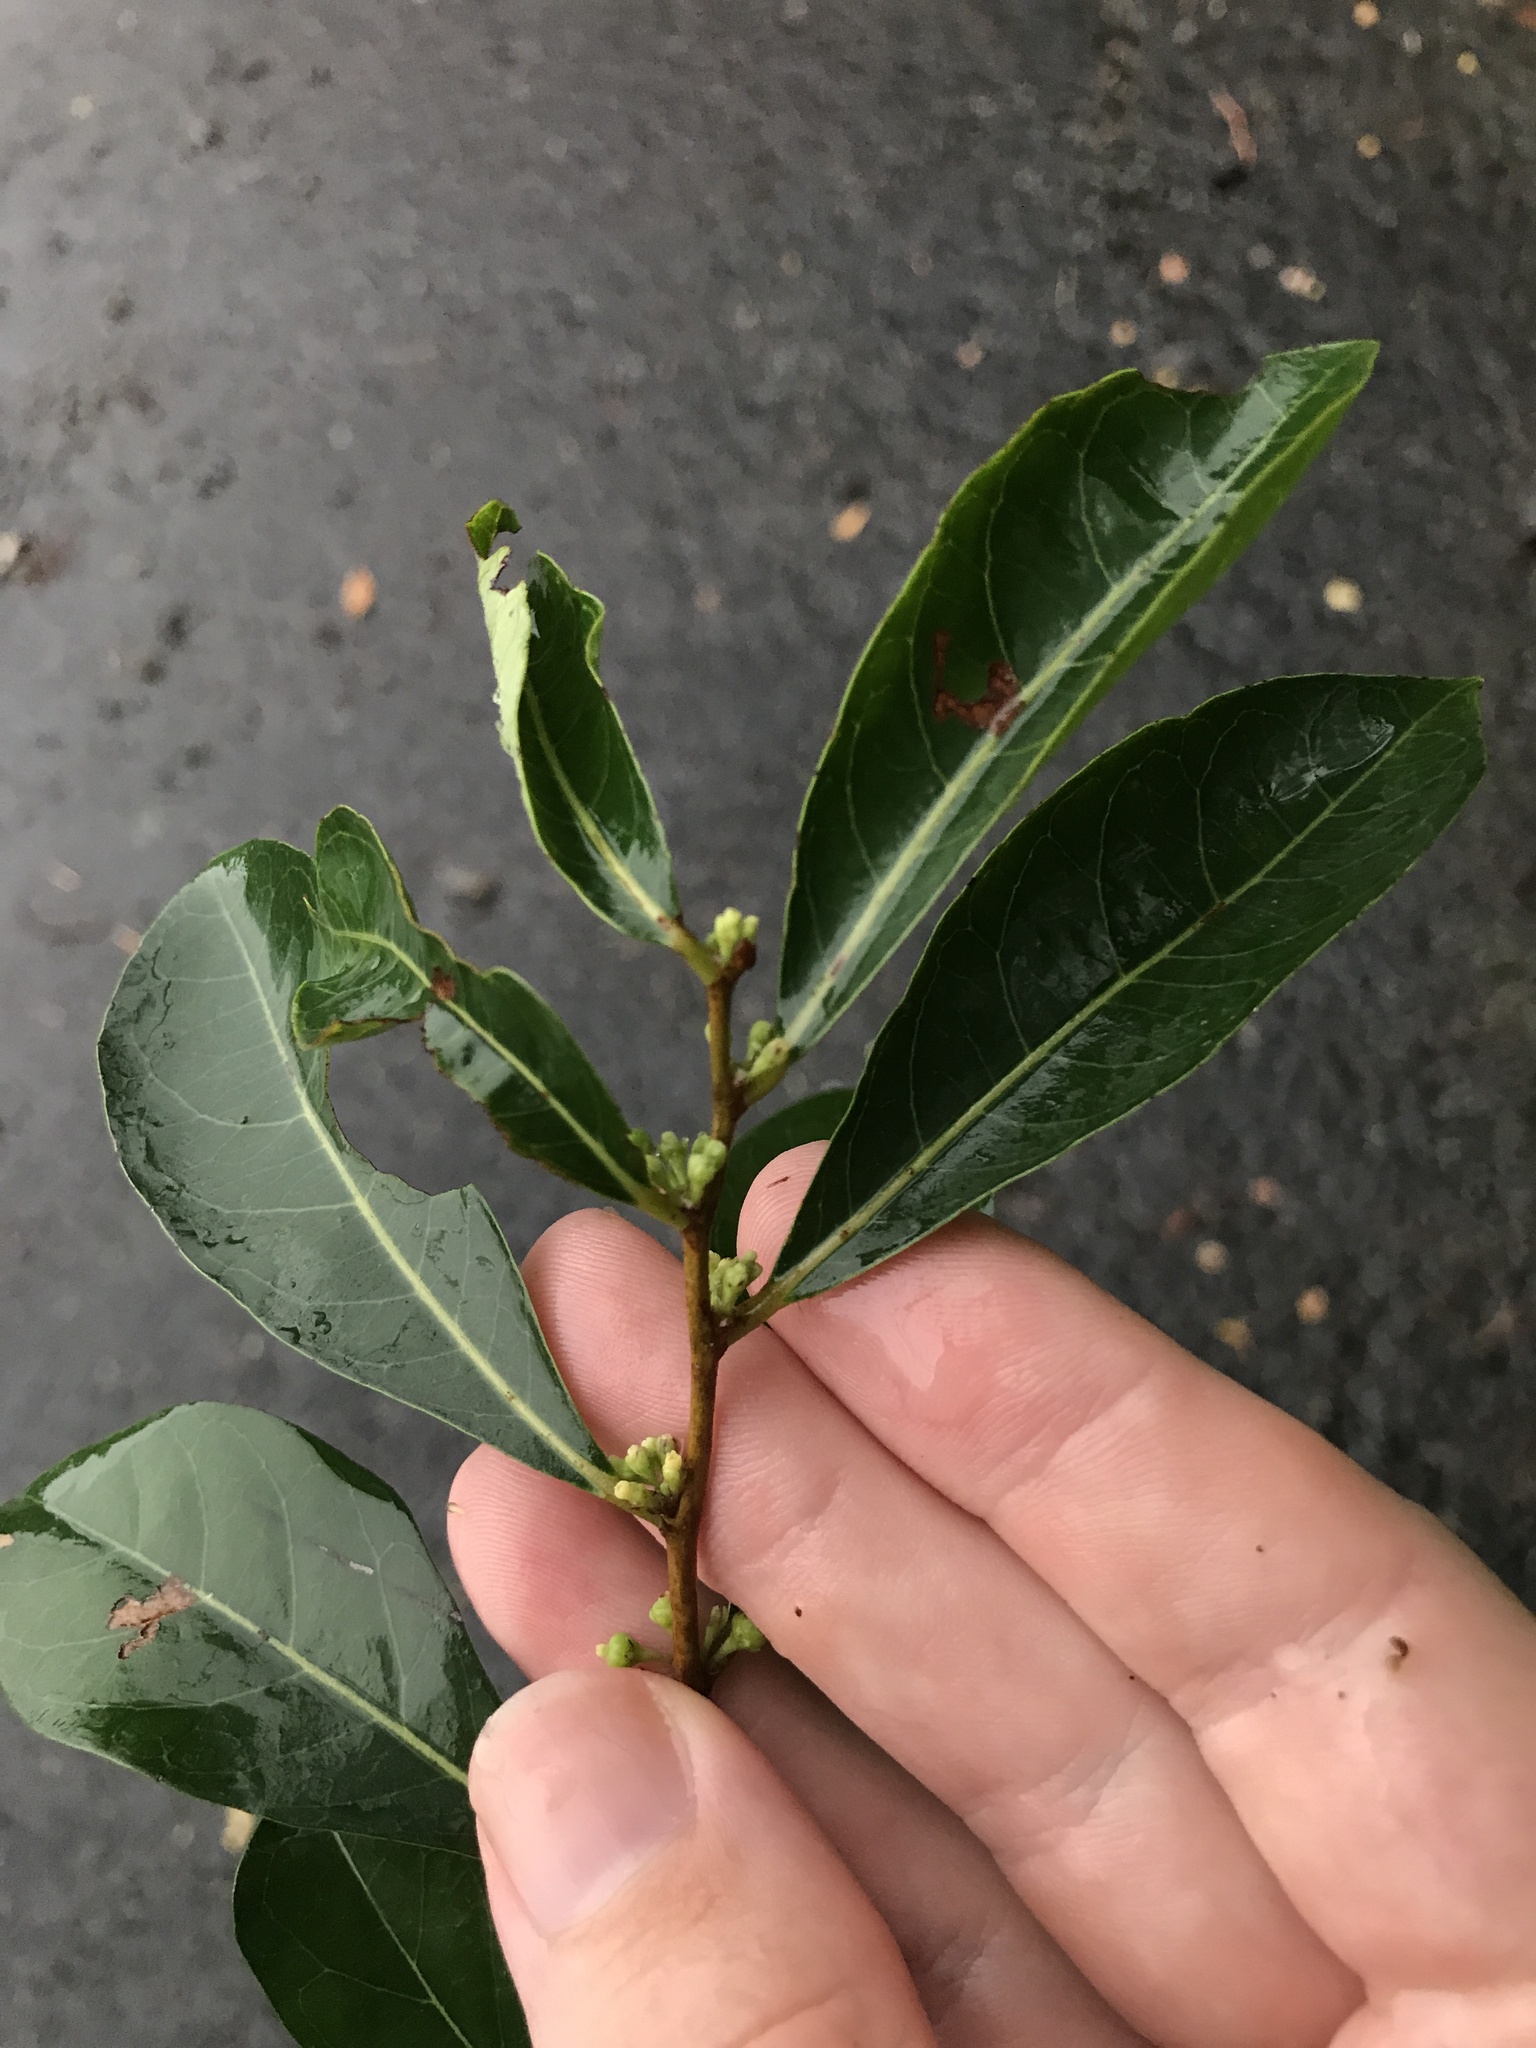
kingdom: Plantae
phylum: Tracheophyta
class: Magnoliopsida
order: Malpighiales
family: Phyllanthaceae
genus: Glochidion
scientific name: Glochidion obovatum
